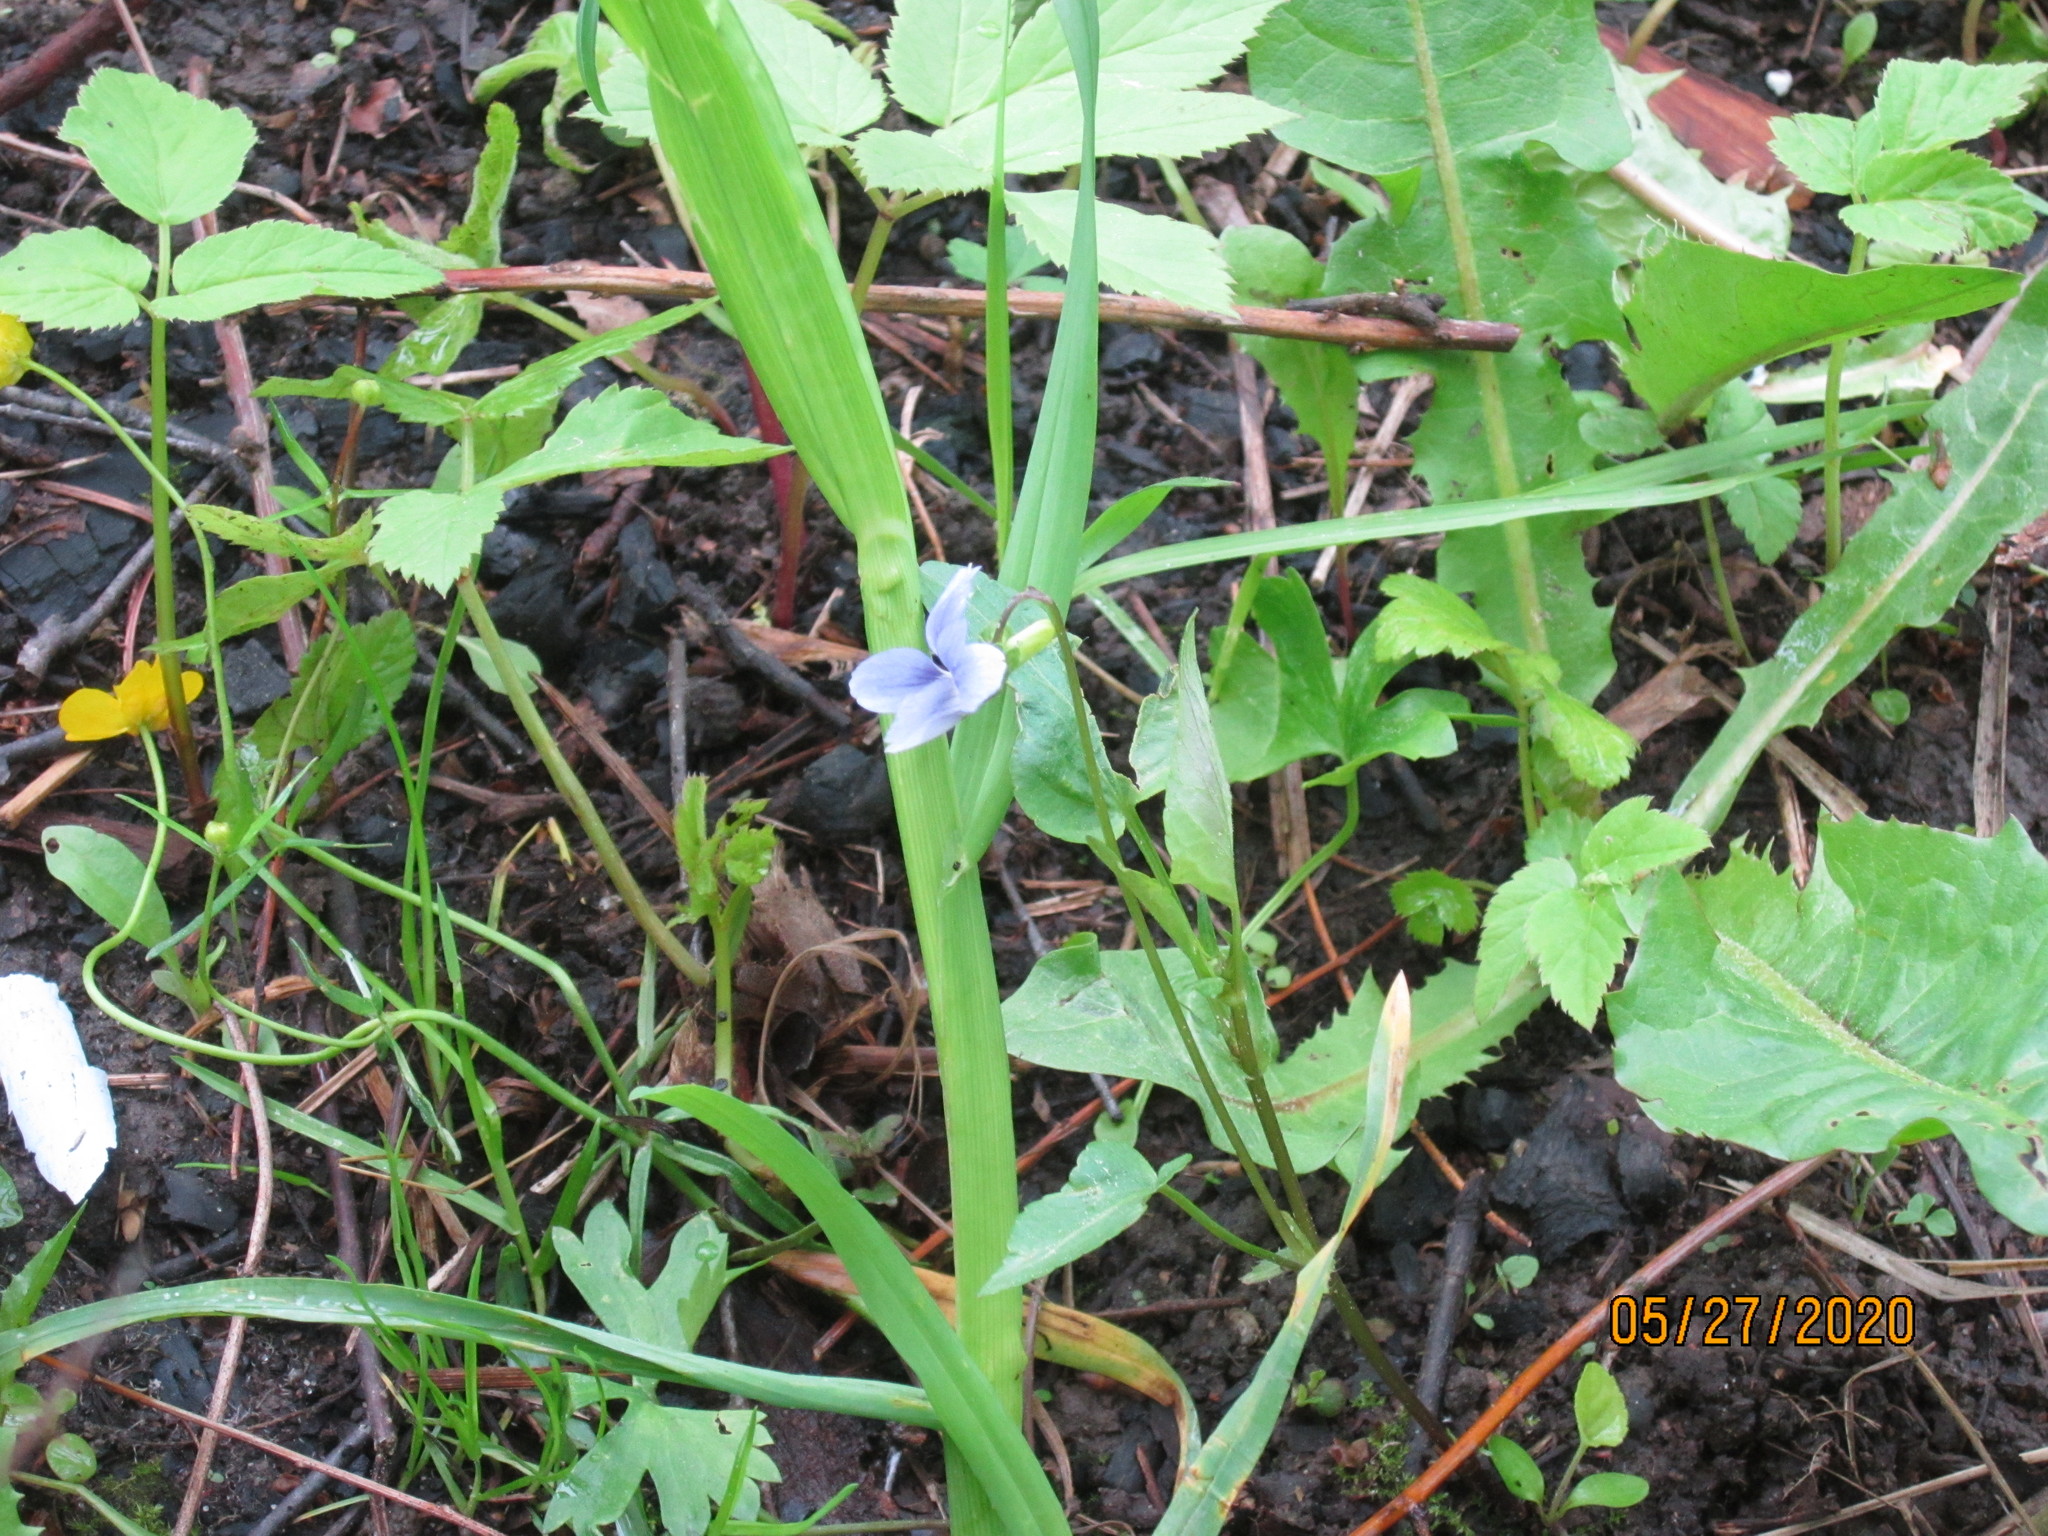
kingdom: Plantae
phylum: Tracheophyta
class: Magnoliopsida
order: Malpighiales
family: Violaceae
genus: Viola
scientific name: Viola canina
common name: Heath dog-violet
